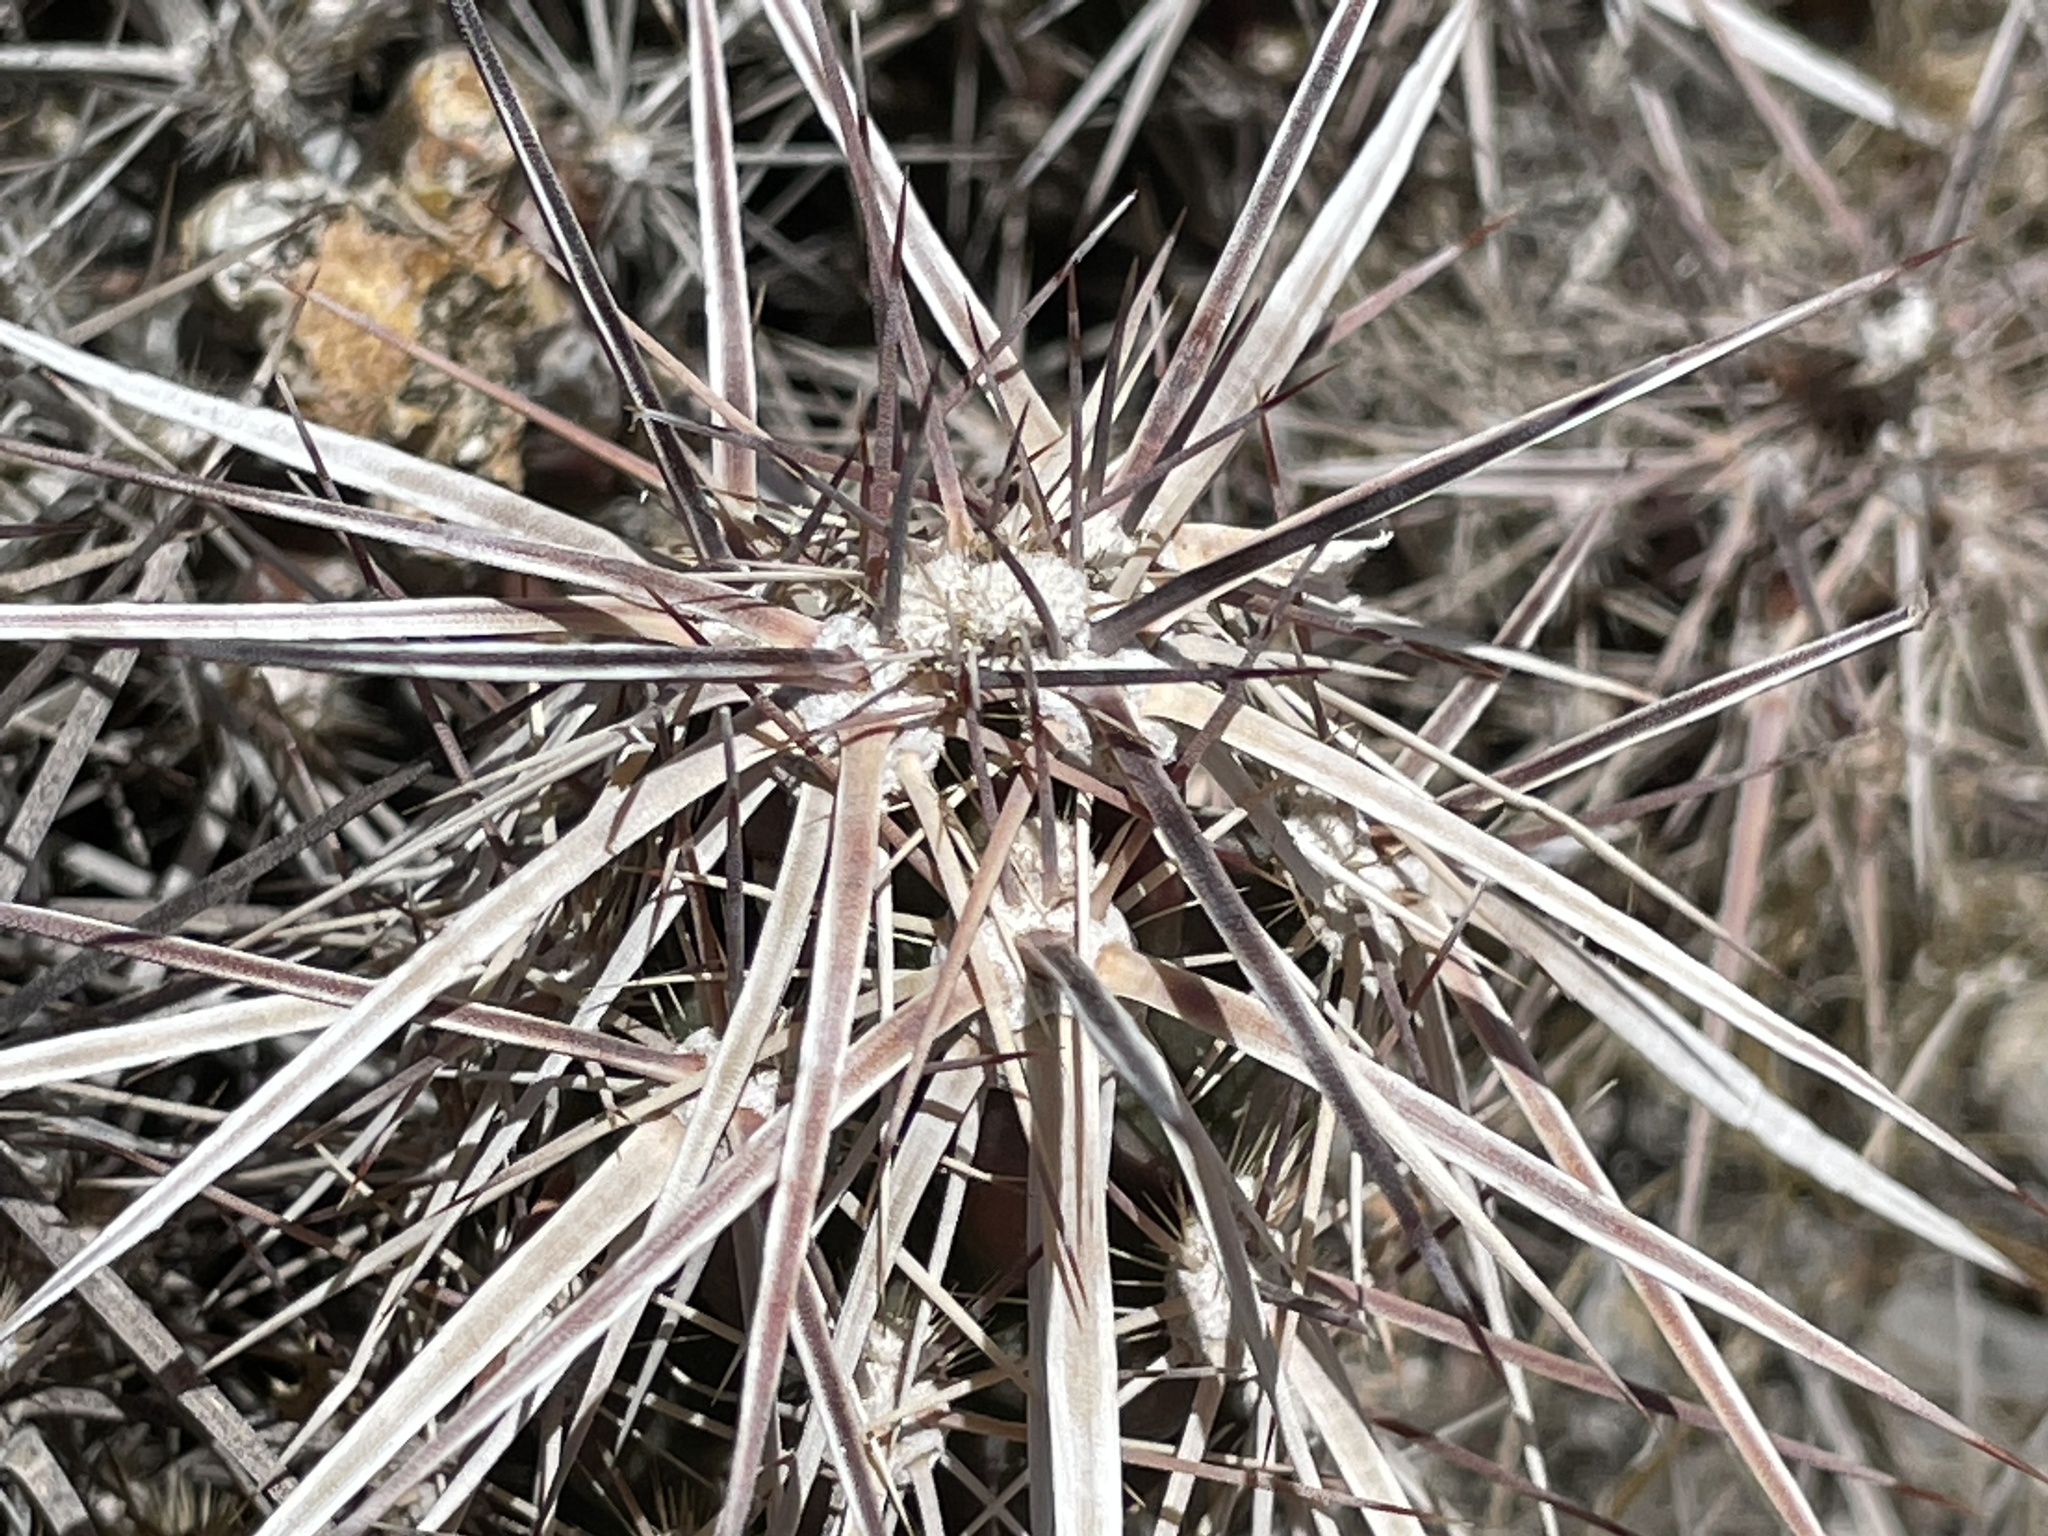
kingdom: Plantae
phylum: Tracheophyta
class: Magnoliopsida
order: Caryophyllales
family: Cactaceae
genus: Grusonia
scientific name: Grusonia parishiorum
